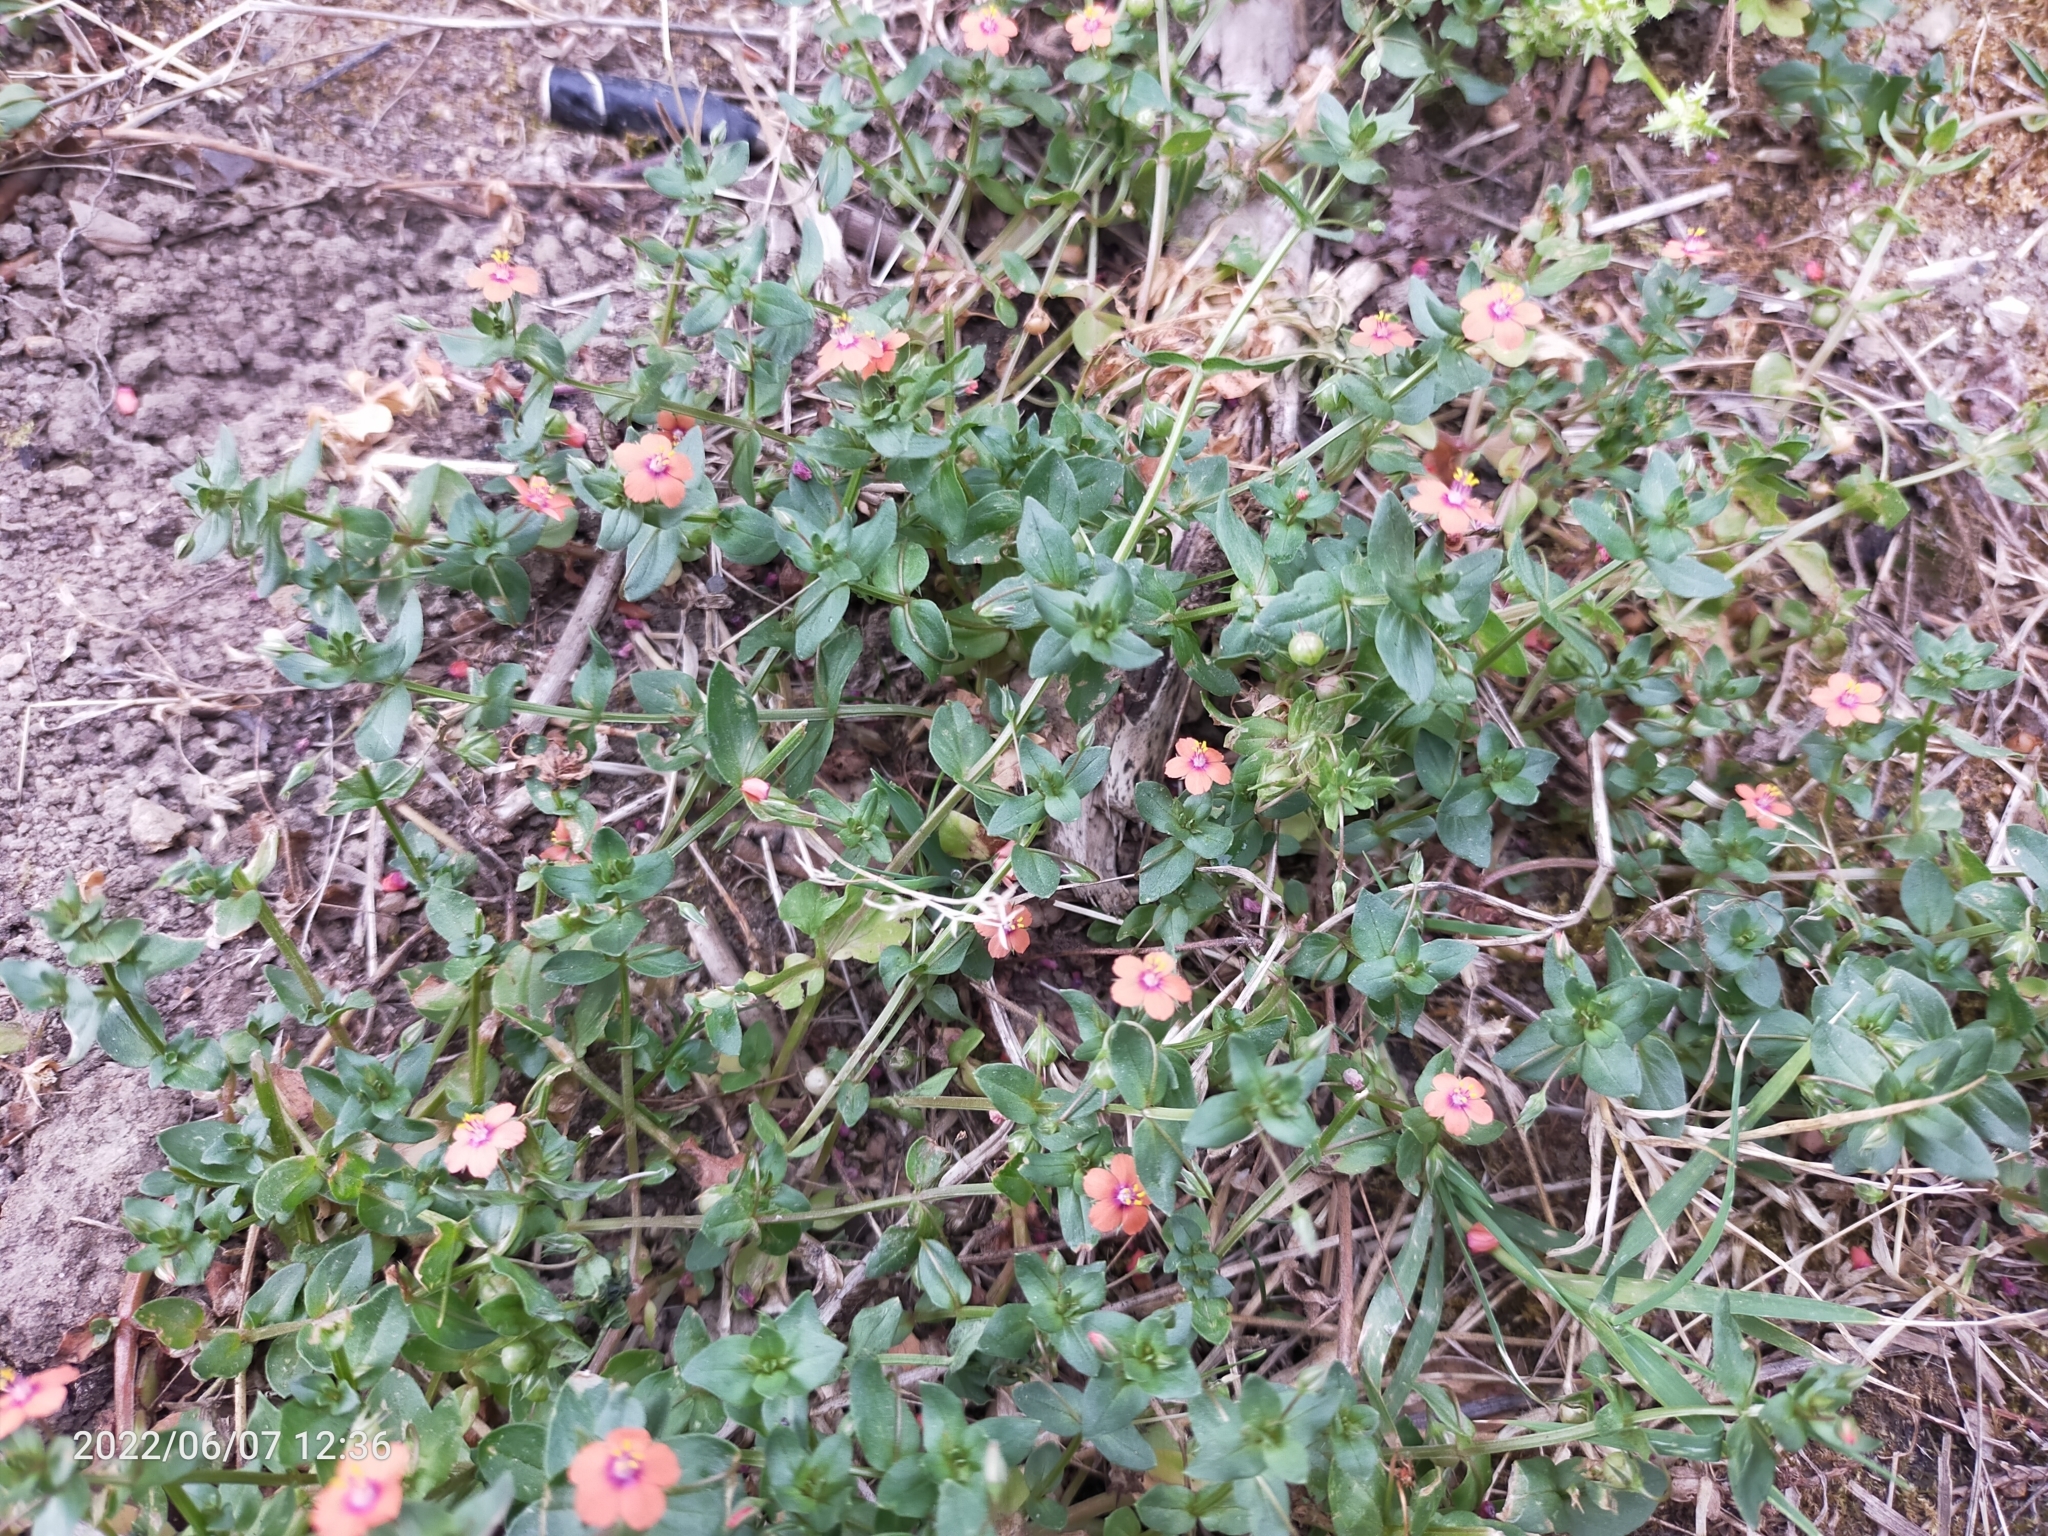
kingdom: Plantae
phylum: Tracheophyta
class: Magnoliopsida
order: Ericales
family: Primulaceae
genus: Lysimachia
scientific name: Lysimachia arvensis
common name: Scarlet pimpernel
